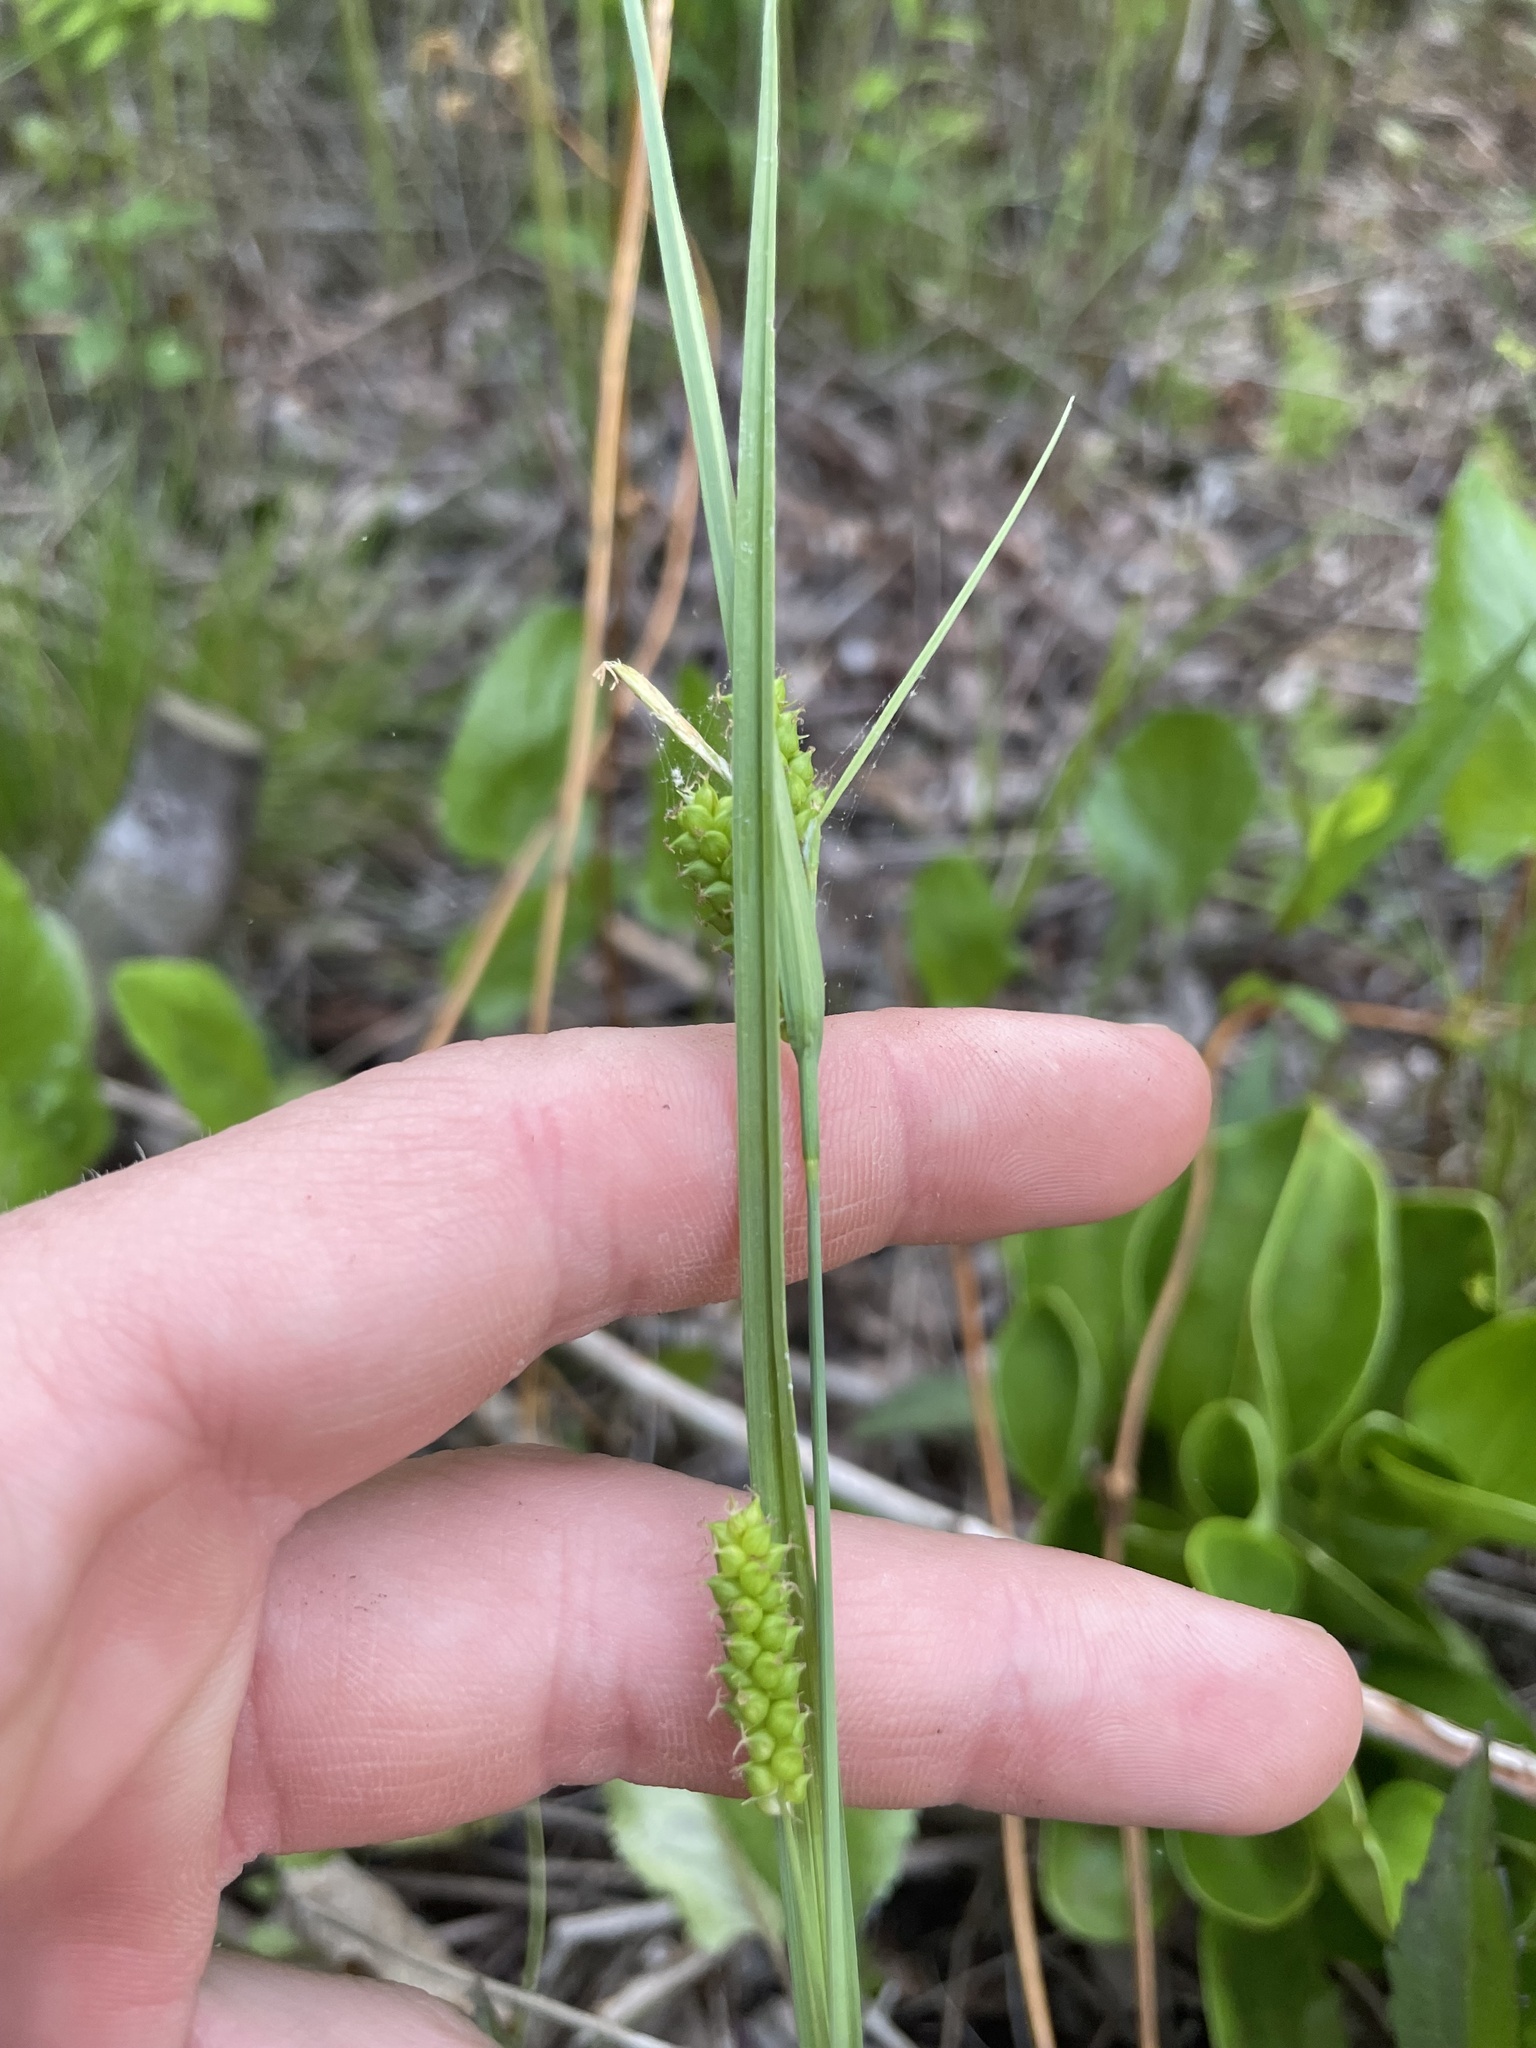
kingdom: Plantae
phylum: Tracheophyta
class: Liliopsida
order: Poales
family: Cyperaceae
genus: Carex
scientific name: Carex granularis
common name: Granular sedge
